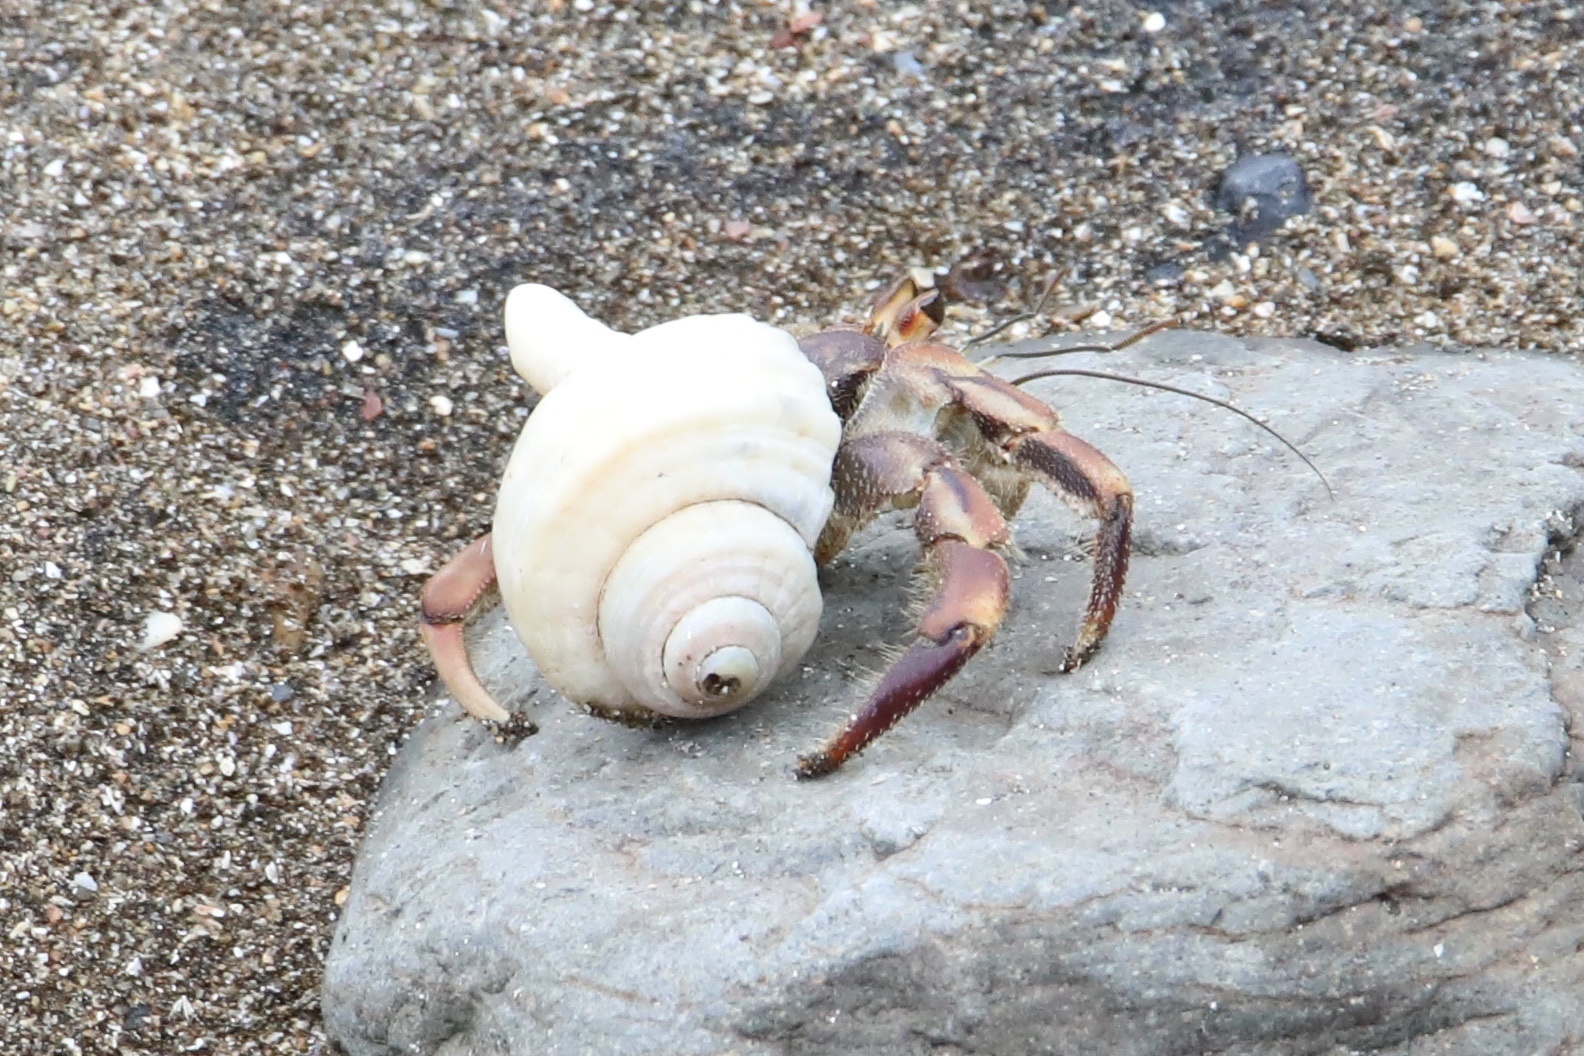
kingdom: Animalia
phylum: Arthropoda
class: Malacostraca
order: Decapoda
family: Coenobitidae
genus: Coenobita
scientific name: Coenobita compressus
